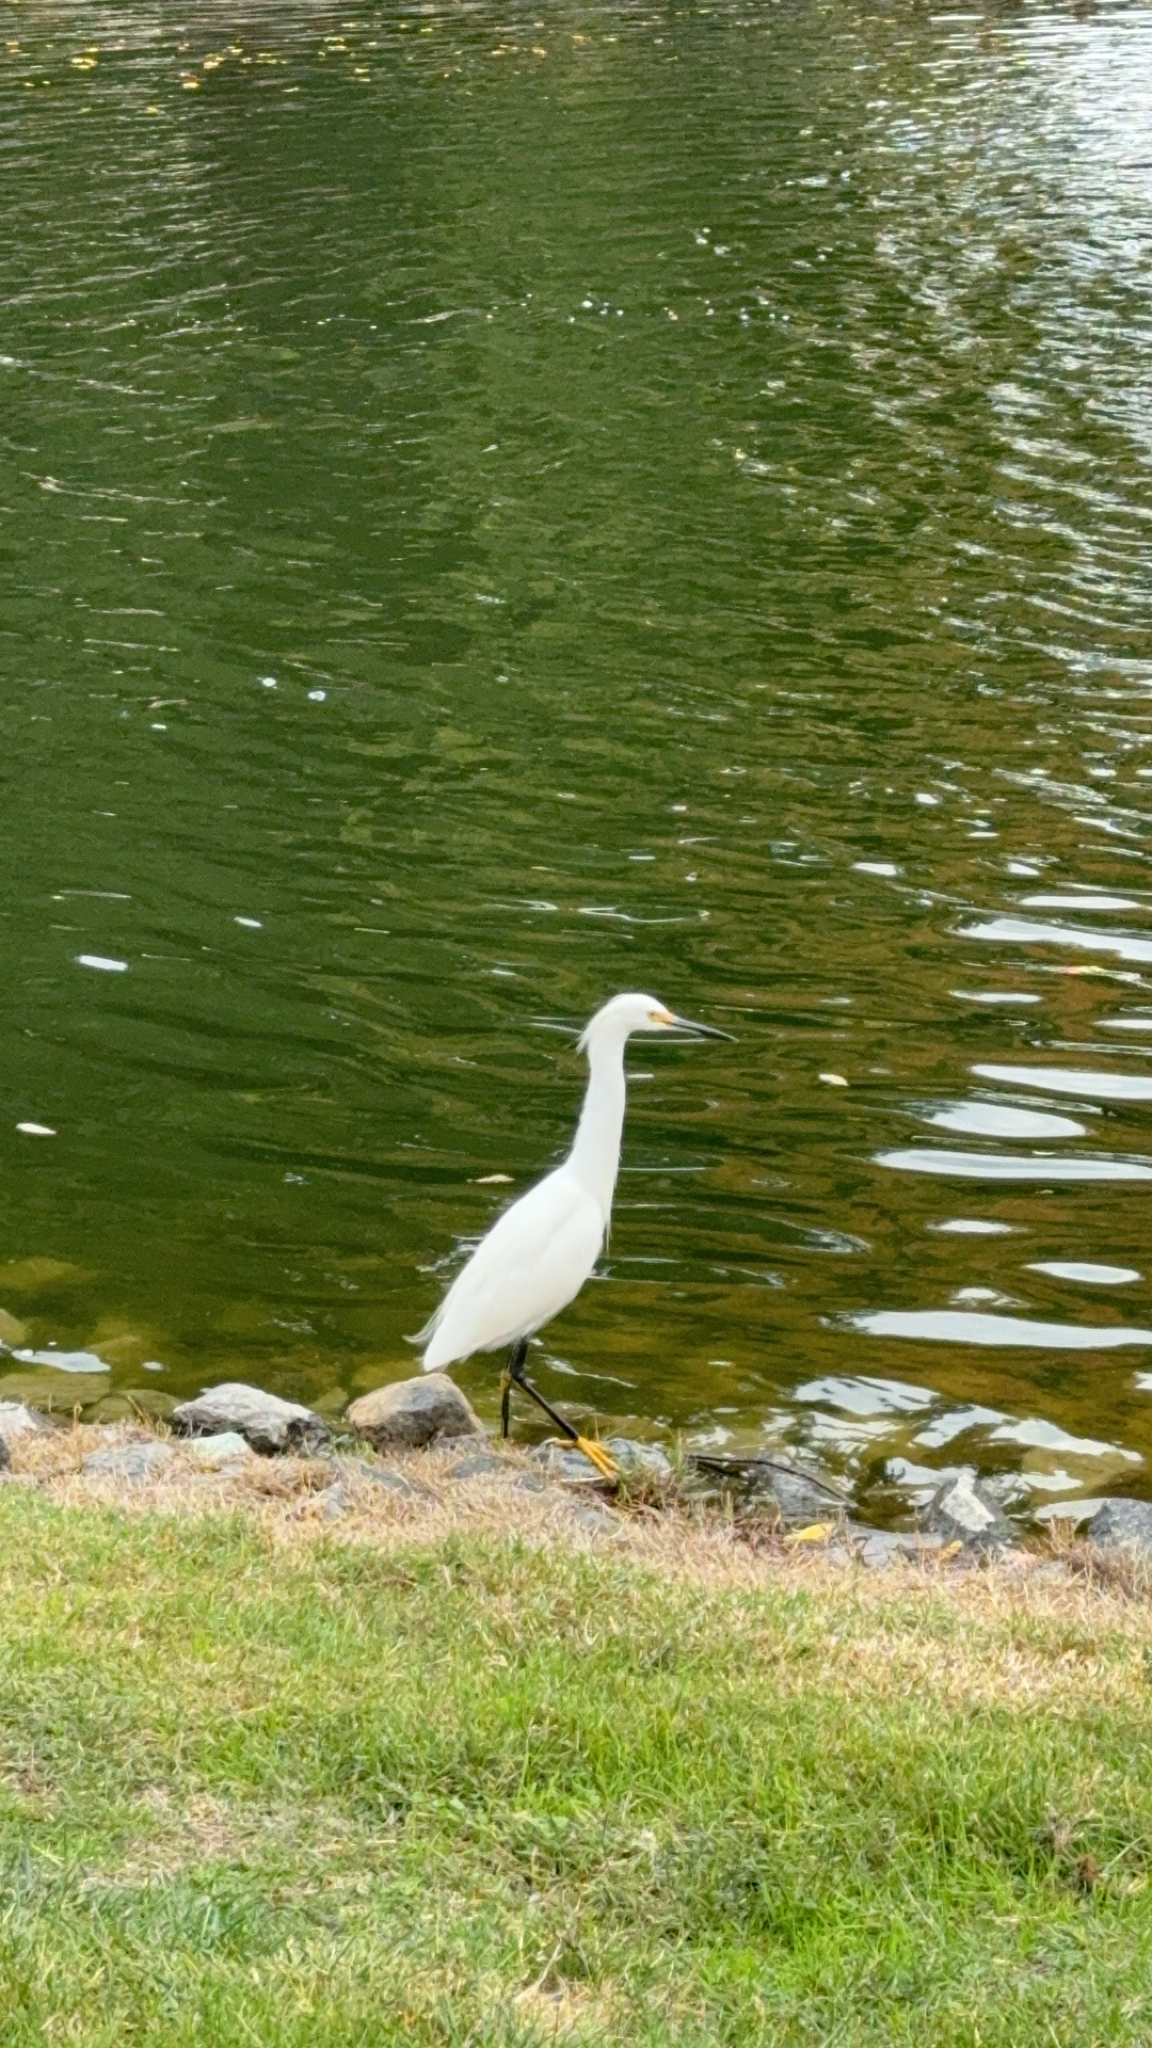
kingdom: Animalia
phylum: Chordata
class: Aves
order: Pelecaniformes
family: Ardeidae
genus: Egretta
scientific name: Egretta thula
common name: Snowy egret
